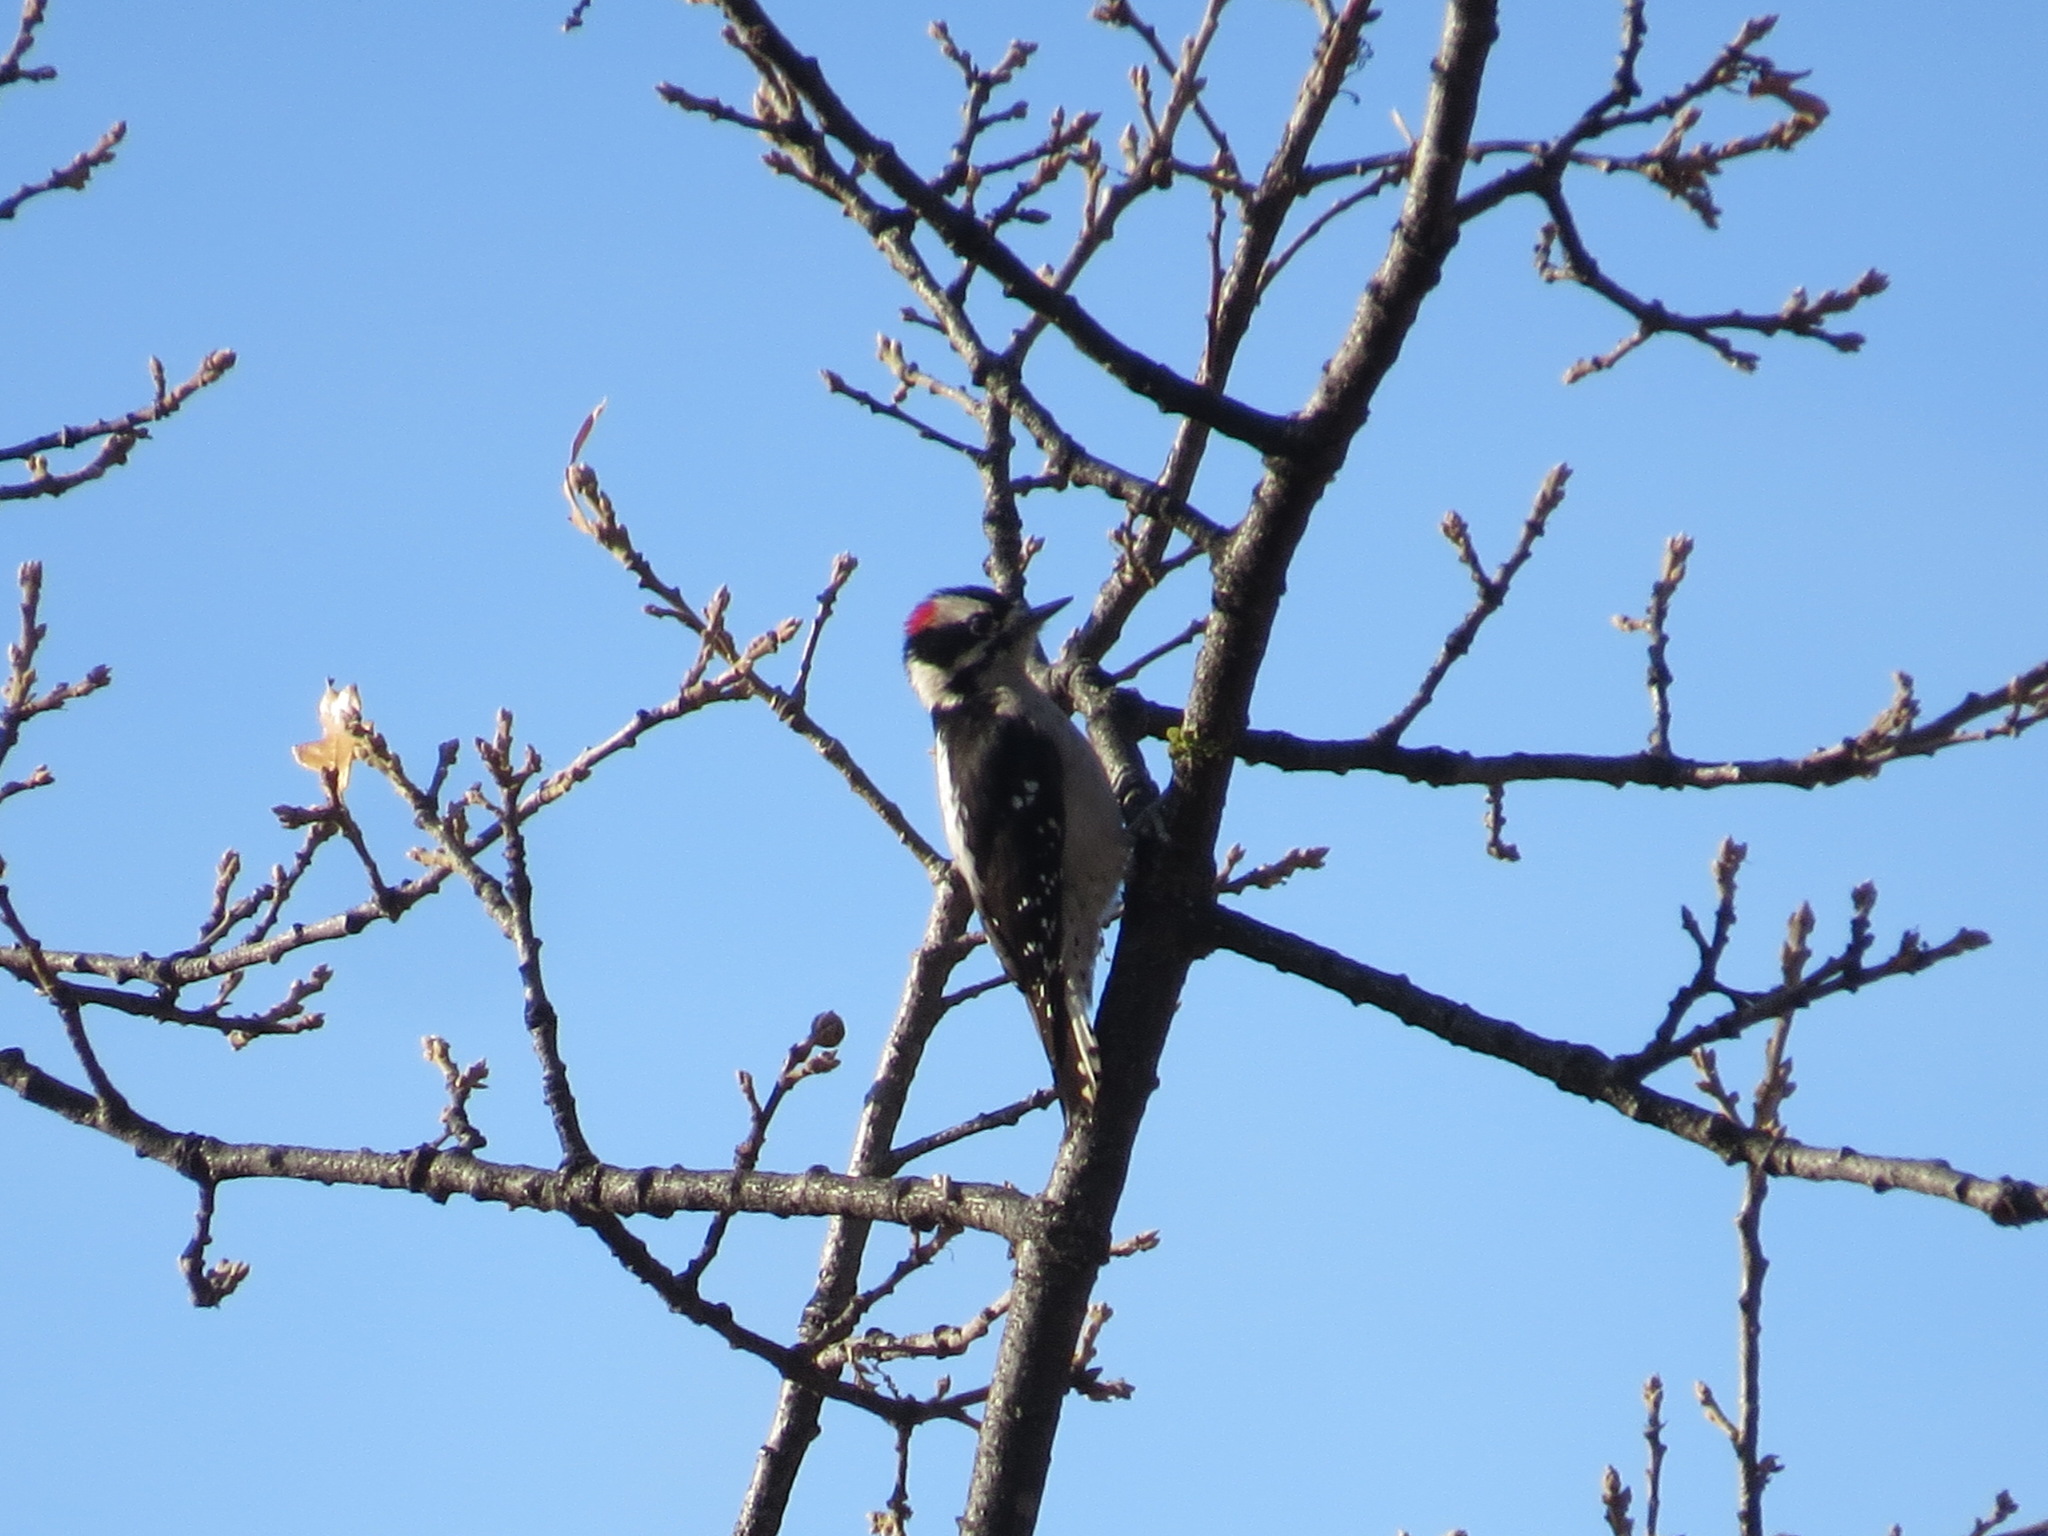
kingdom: Animalia
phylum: Chordata
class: Aves
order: Piciformes
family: Picidae
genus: Dryobates
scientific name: Dryobates pubescens
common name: Downy woodpecker
